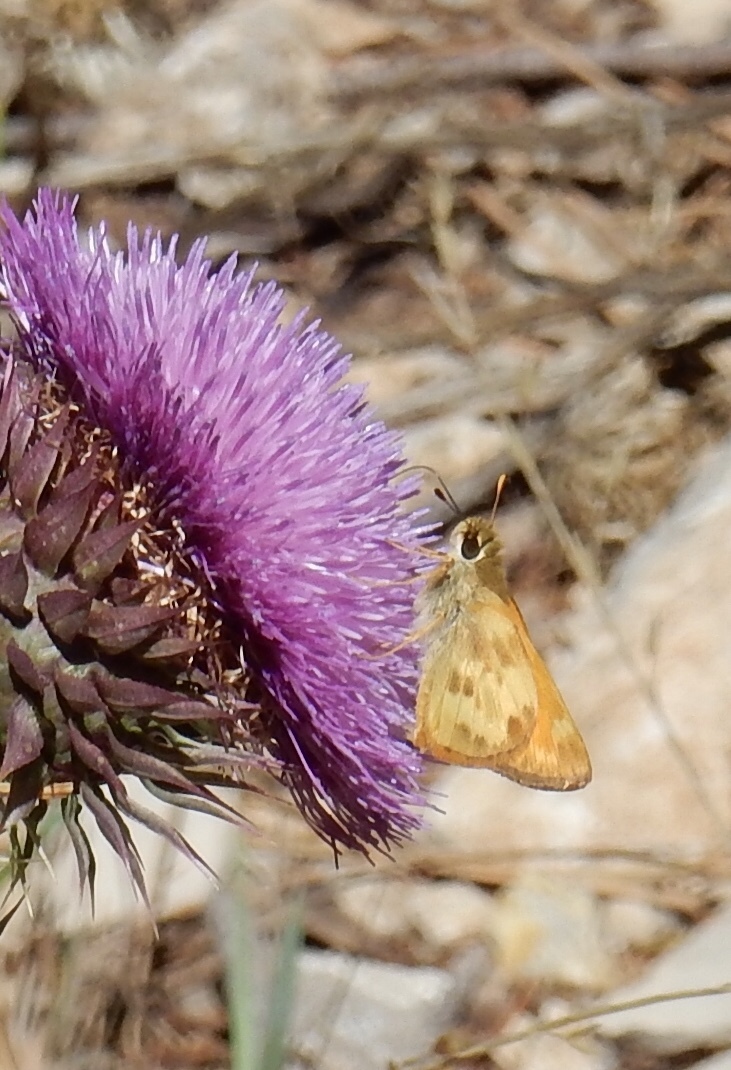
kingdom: Animalia
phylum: Arthropoda
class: Insecta
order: Lepidoptera
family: Hesperiidae
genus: Lon
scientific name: Lon taxiles
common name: Taxiles skipper
